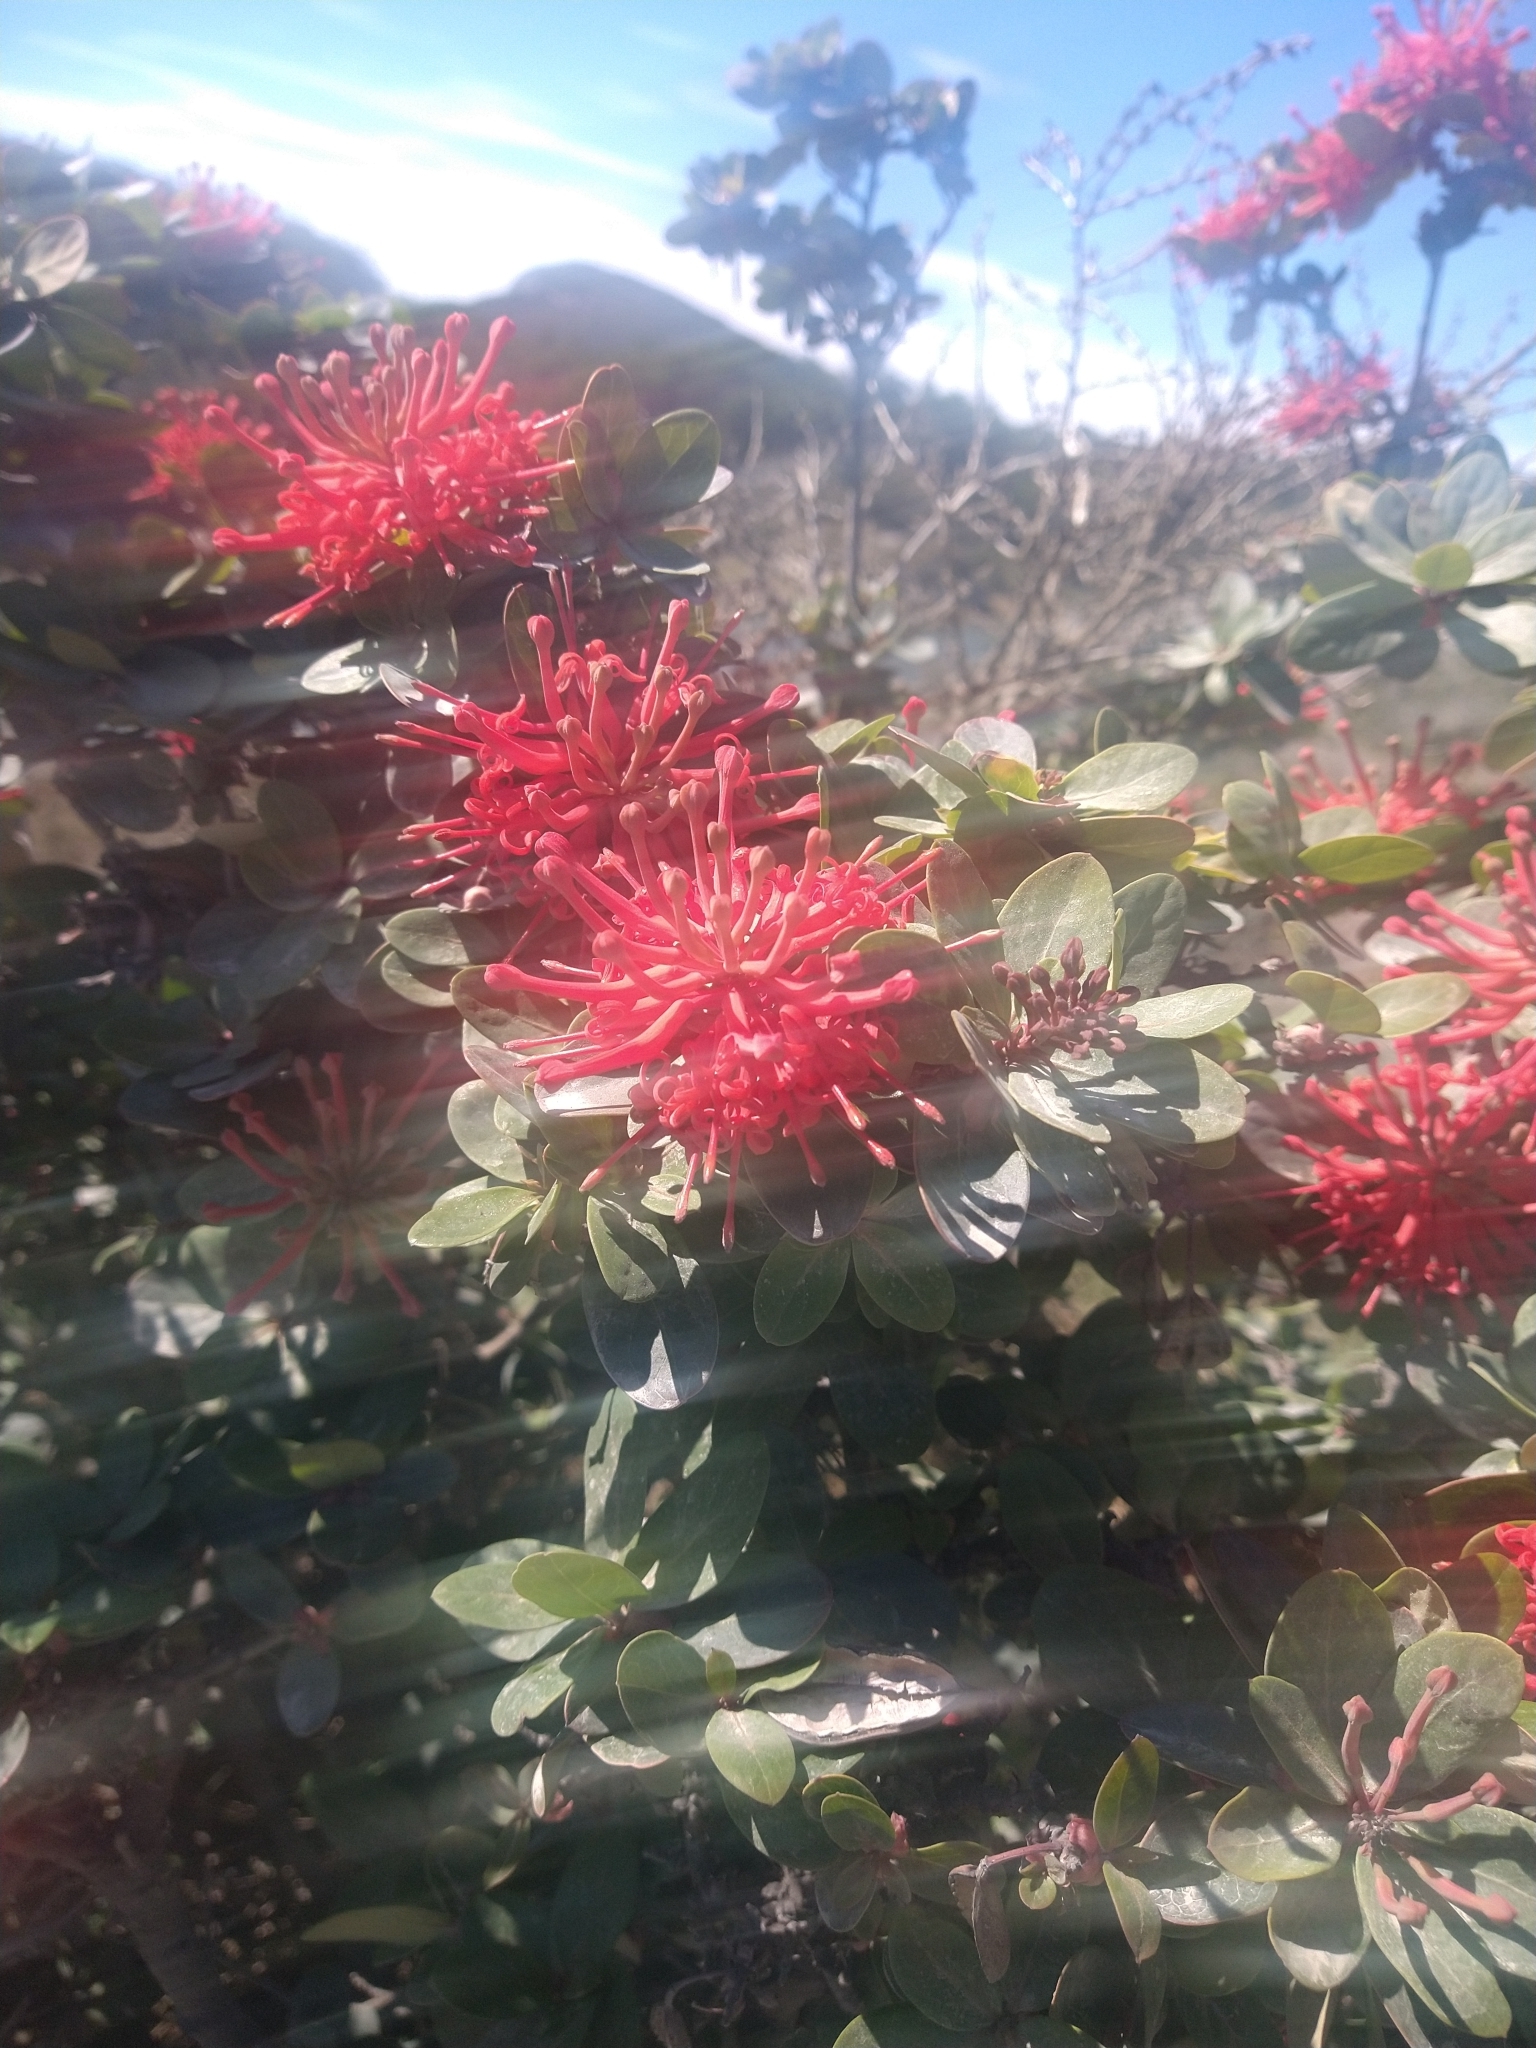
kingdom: Plantae
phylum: Tracheophyta
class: Magnoliopsida
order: Proteales
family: Proteaceae
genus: Embothrium
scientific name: Embothrium coccineum
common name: Chilean firebush
